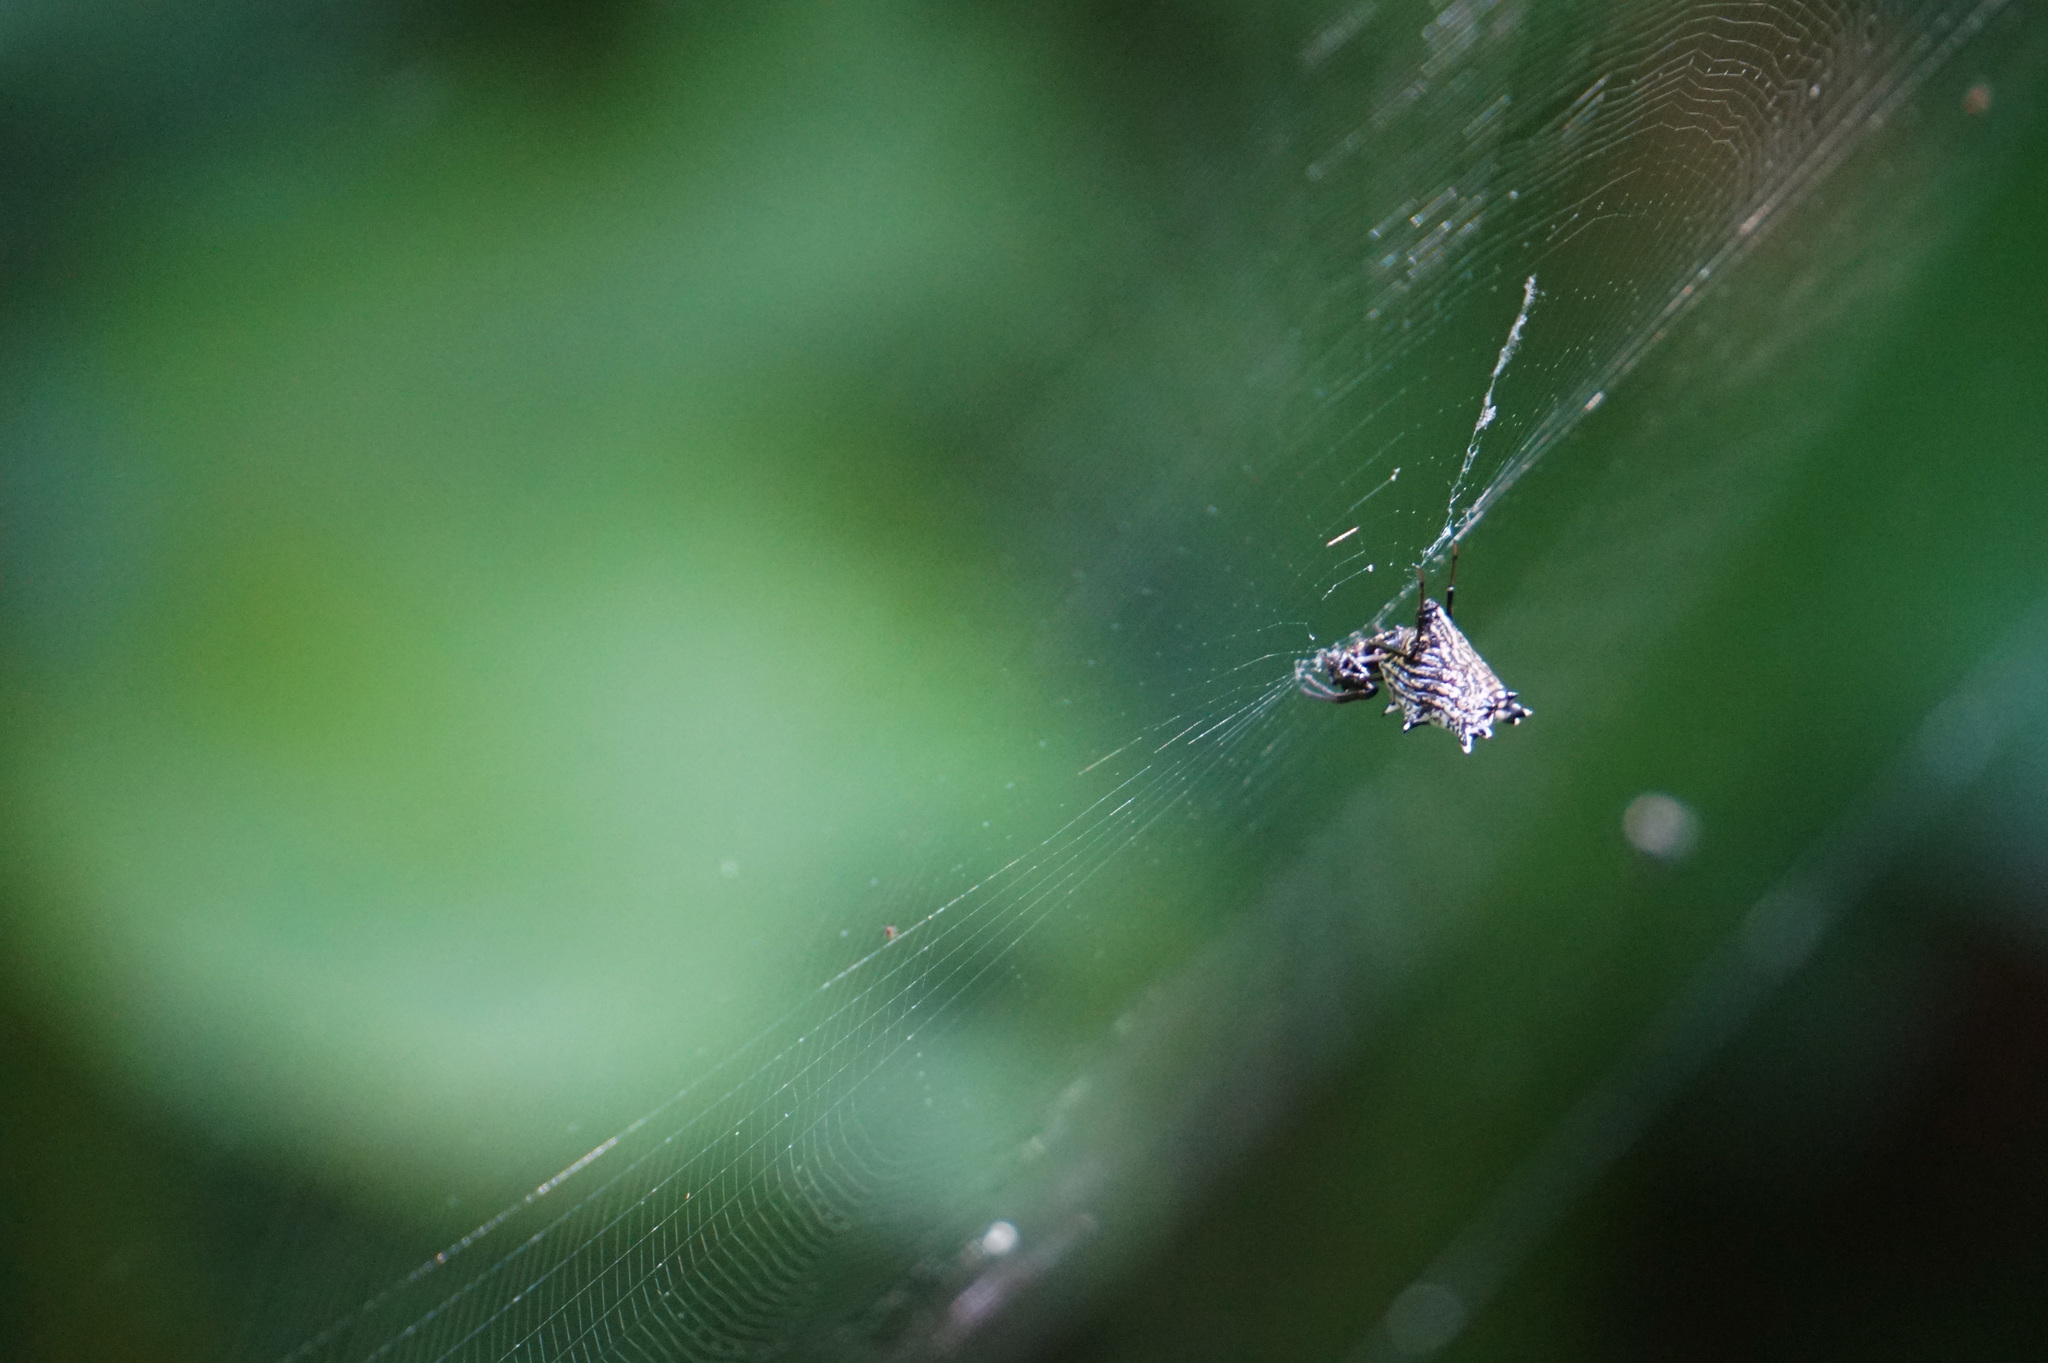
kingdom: Animalia
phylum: Arthropoda
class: Arachnida
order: Araneae
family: Araneidae
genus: Micrathena
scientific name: Micrathena gracilis
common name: Orb weavers
